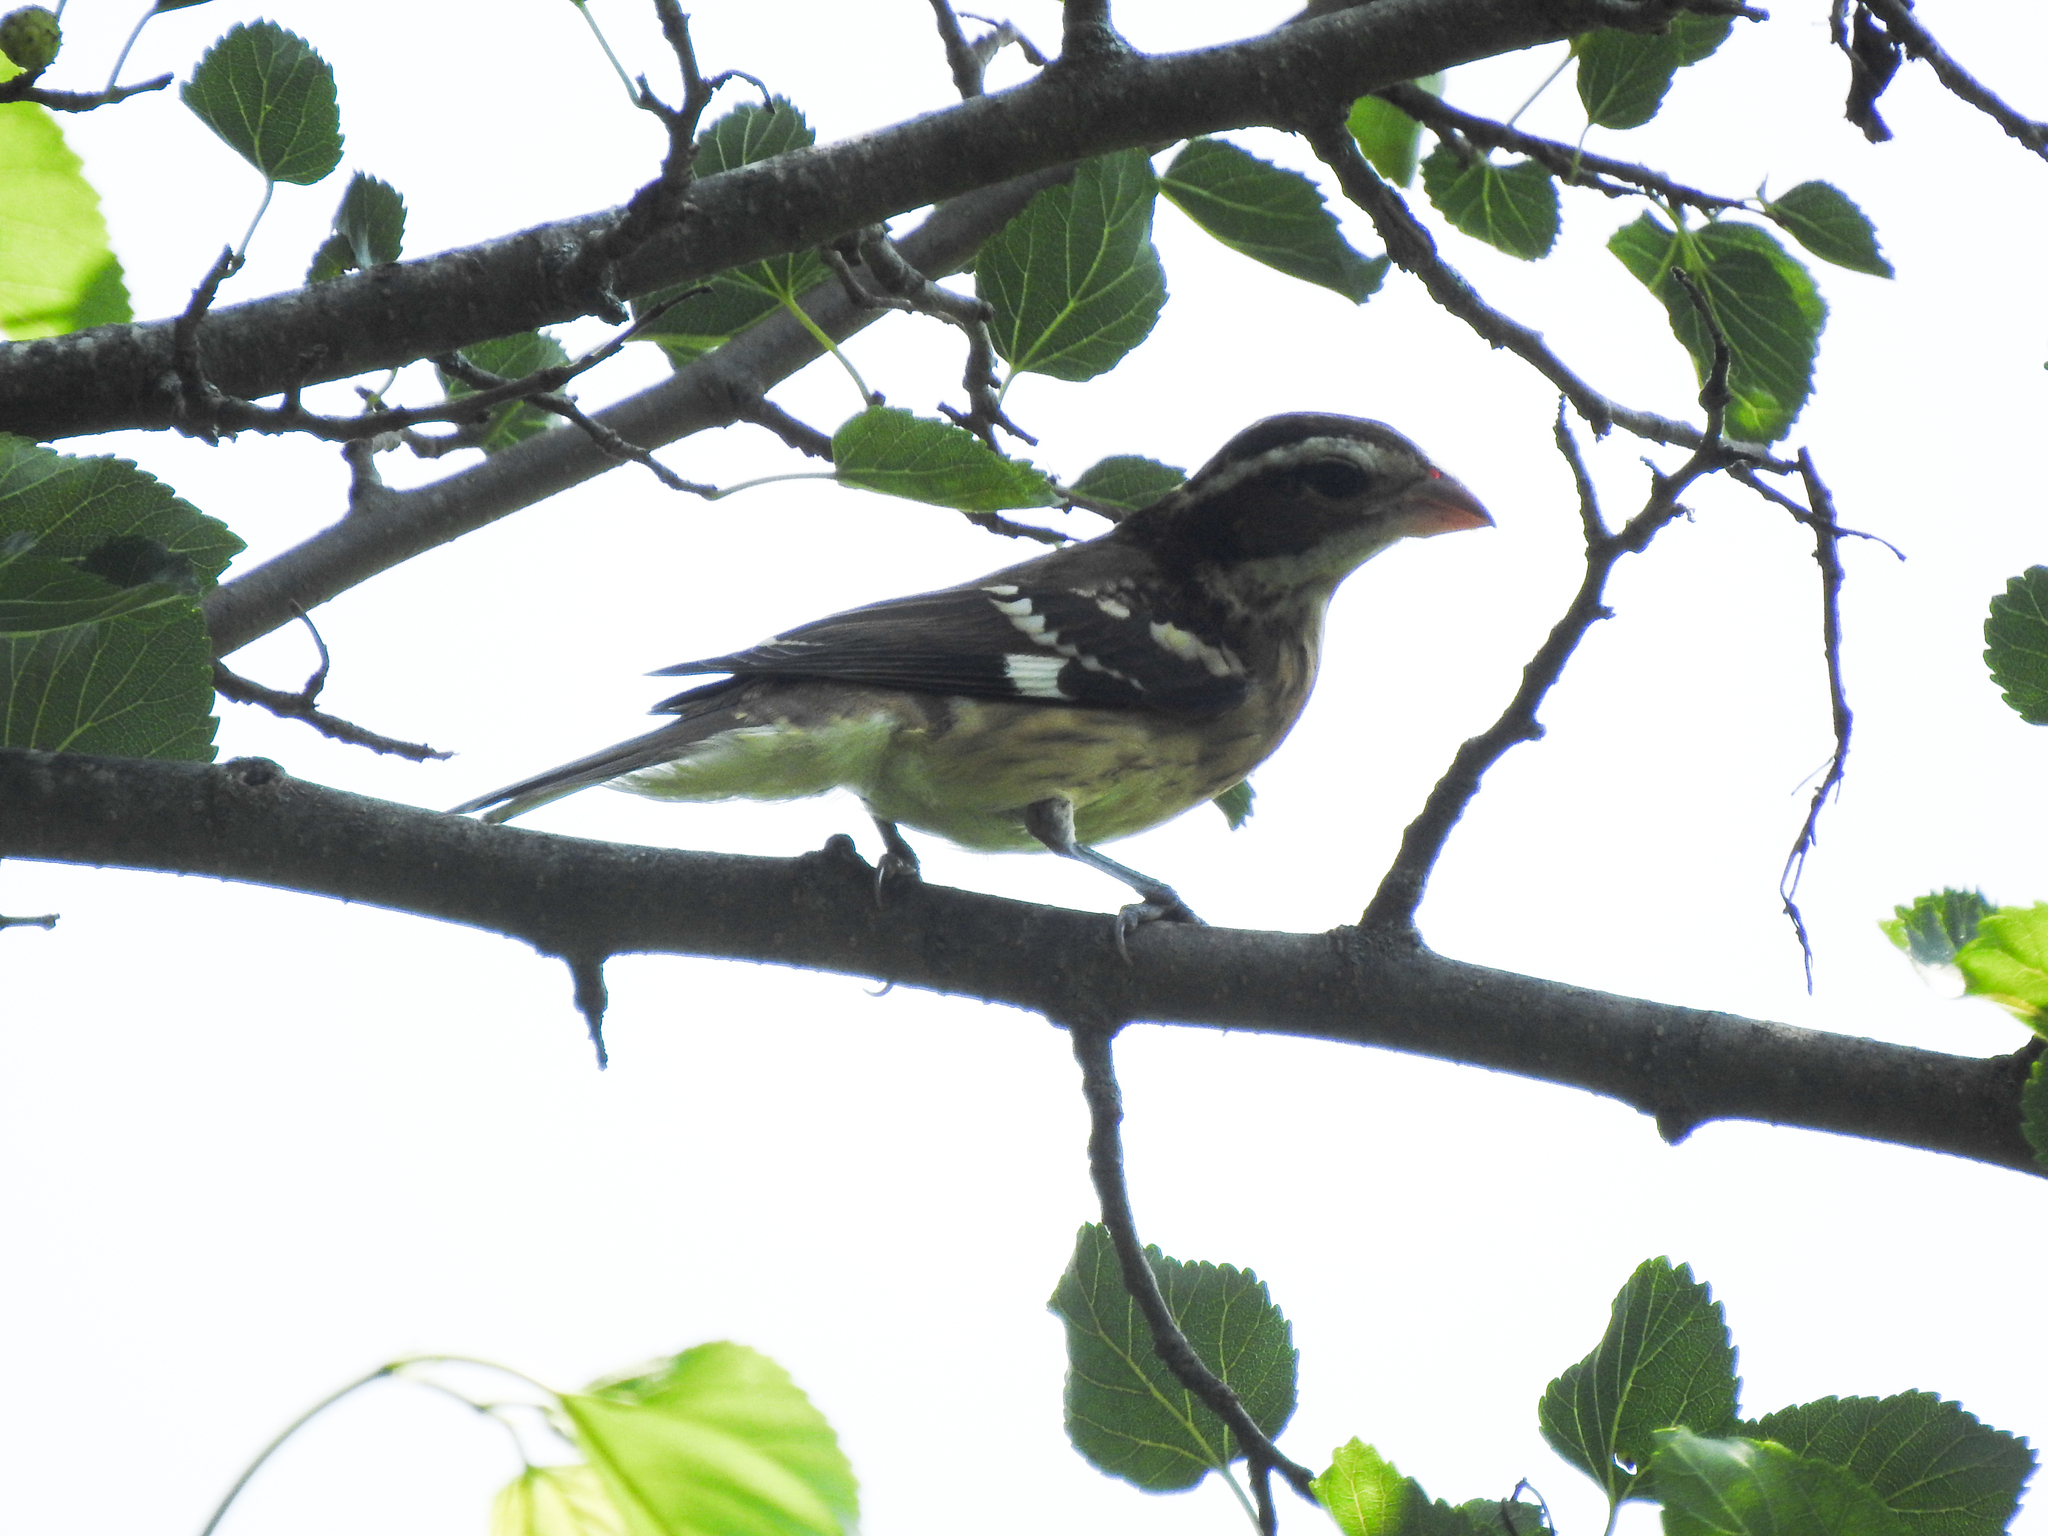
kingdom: Animalia
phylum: Chordata
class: Aves
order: Passeriformes
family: Cardinalidae
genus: Pheucticus
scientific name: Pheucticus ludovicianus
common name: Rose-breasted grosbeak
